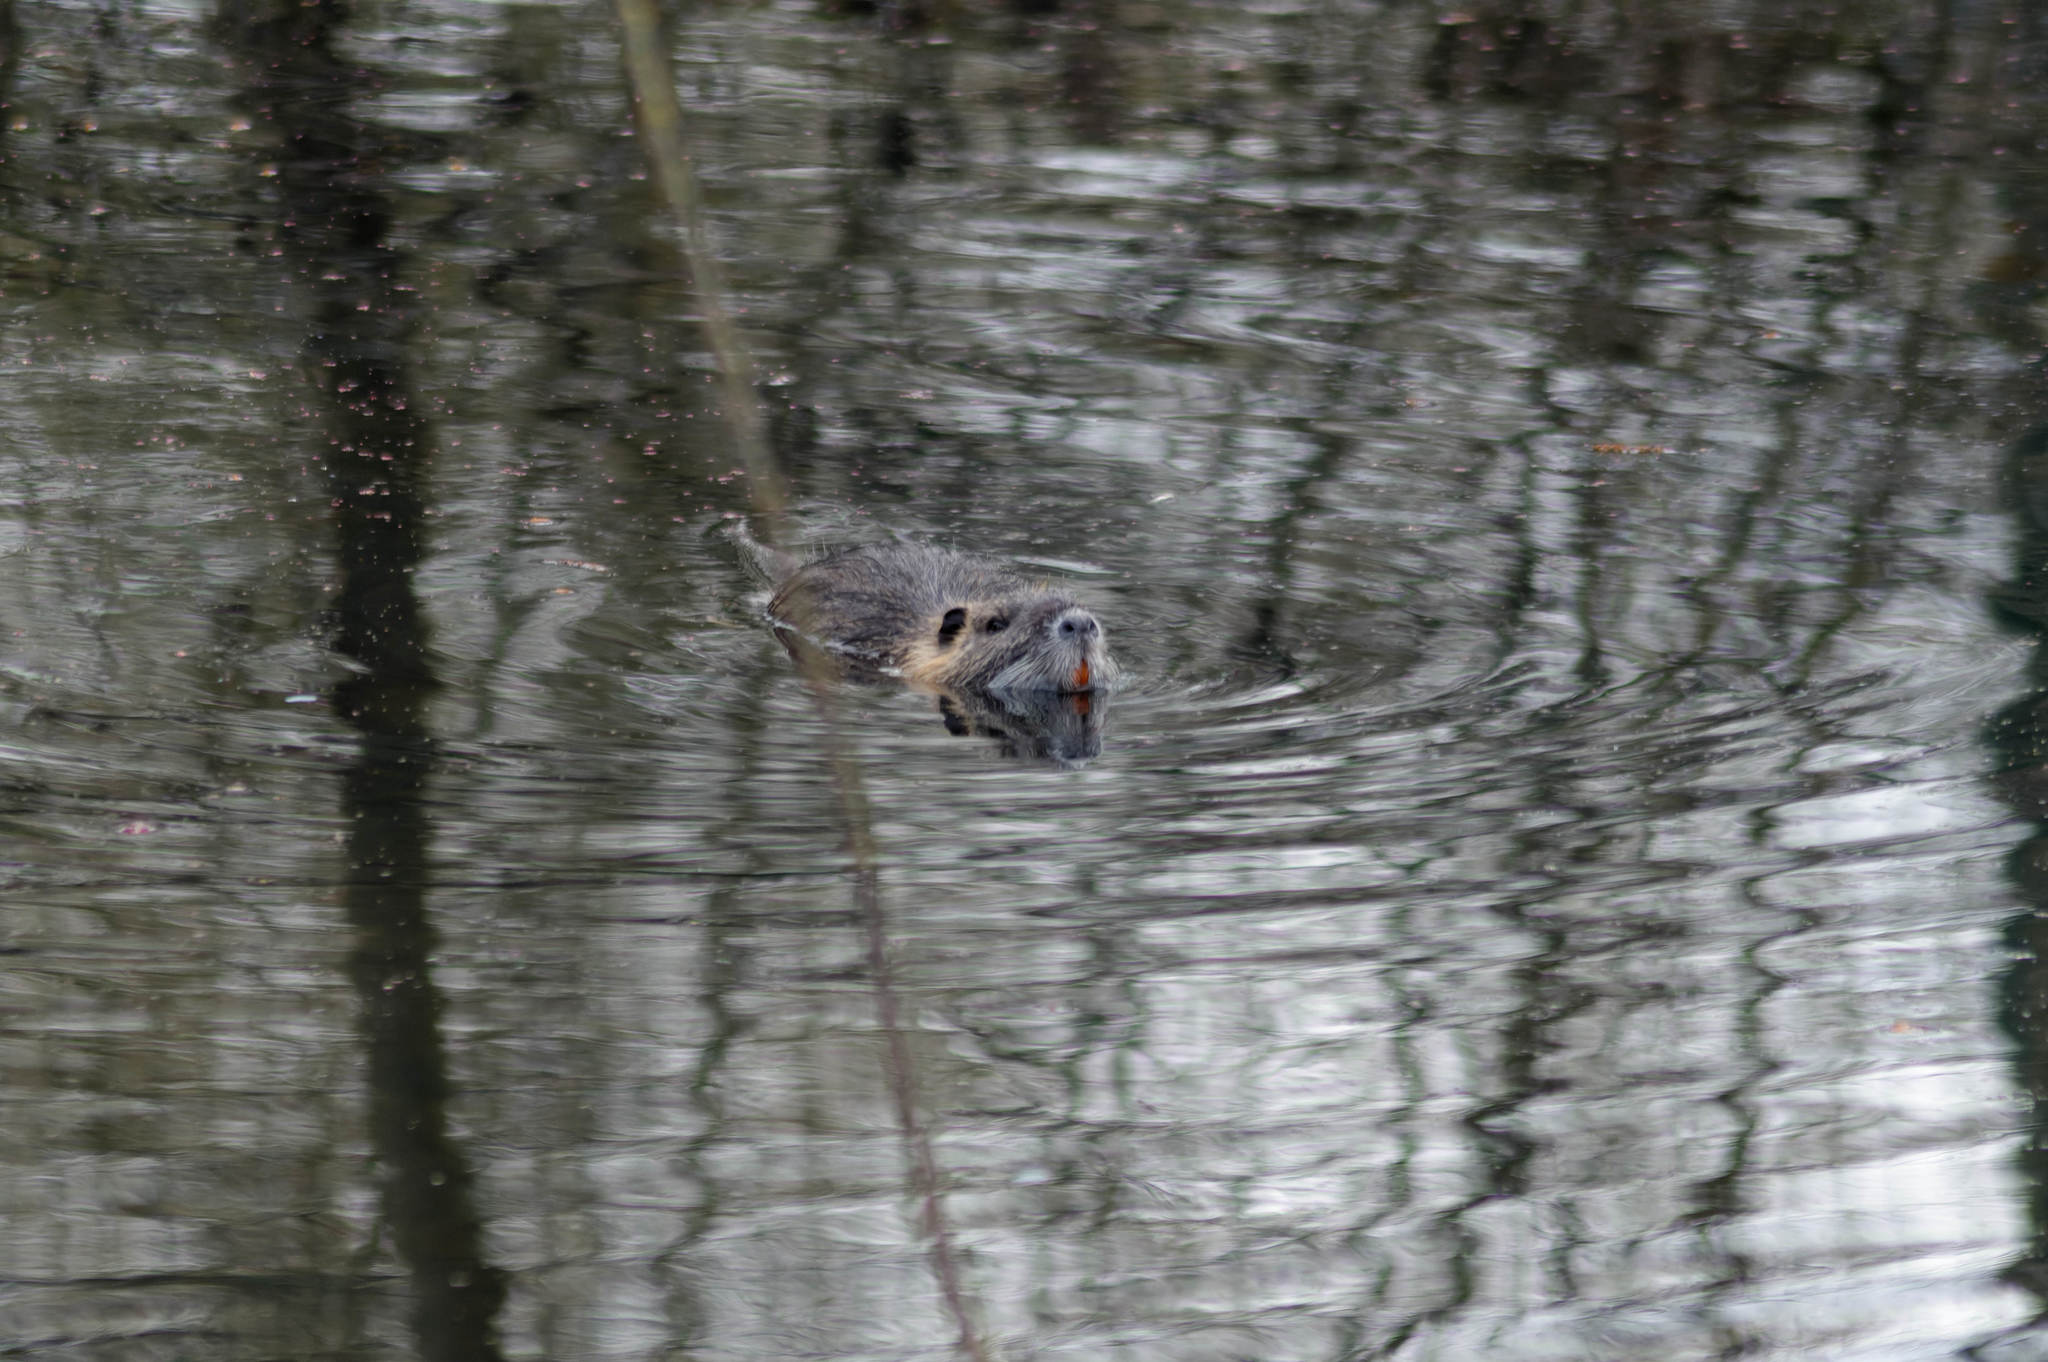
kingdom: Animalia
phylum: Chordata
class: Mammalia
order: Rodentia
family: Myocastoridae
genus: Myocastor
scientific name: Myocastor coypus
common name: Coypu
